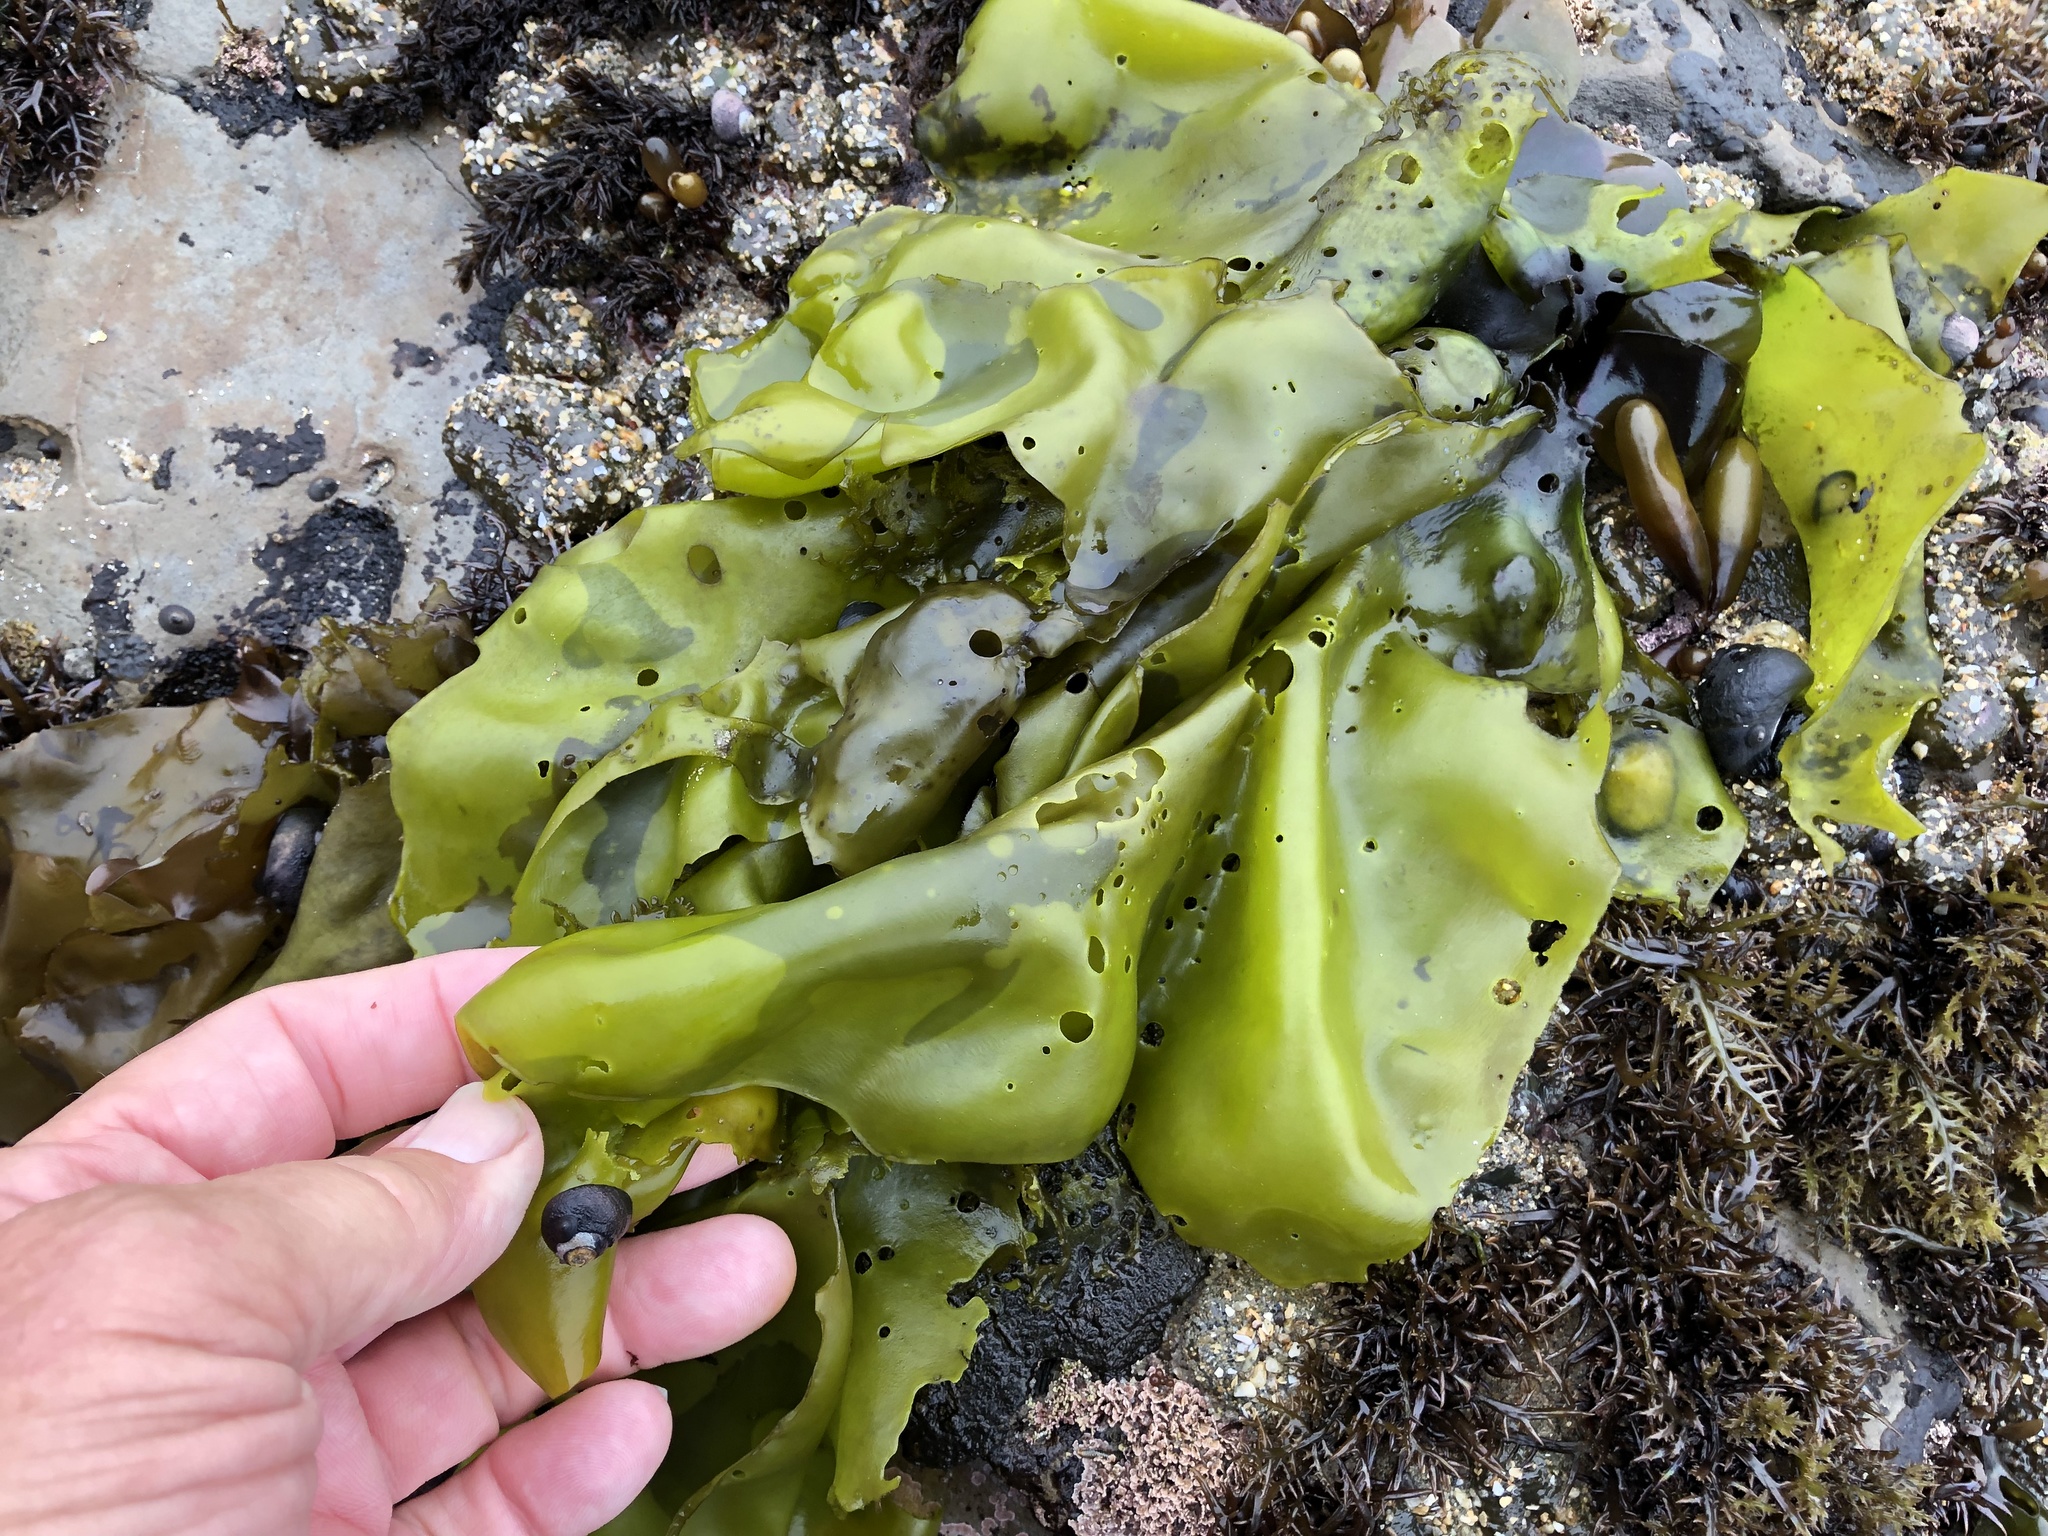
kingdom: Plantae
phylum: Rhodophyta
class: Florideophyceae
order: Gigartinales
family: Gigartinaceae
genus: Mazzaella
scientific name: Mazzaella flaccida
